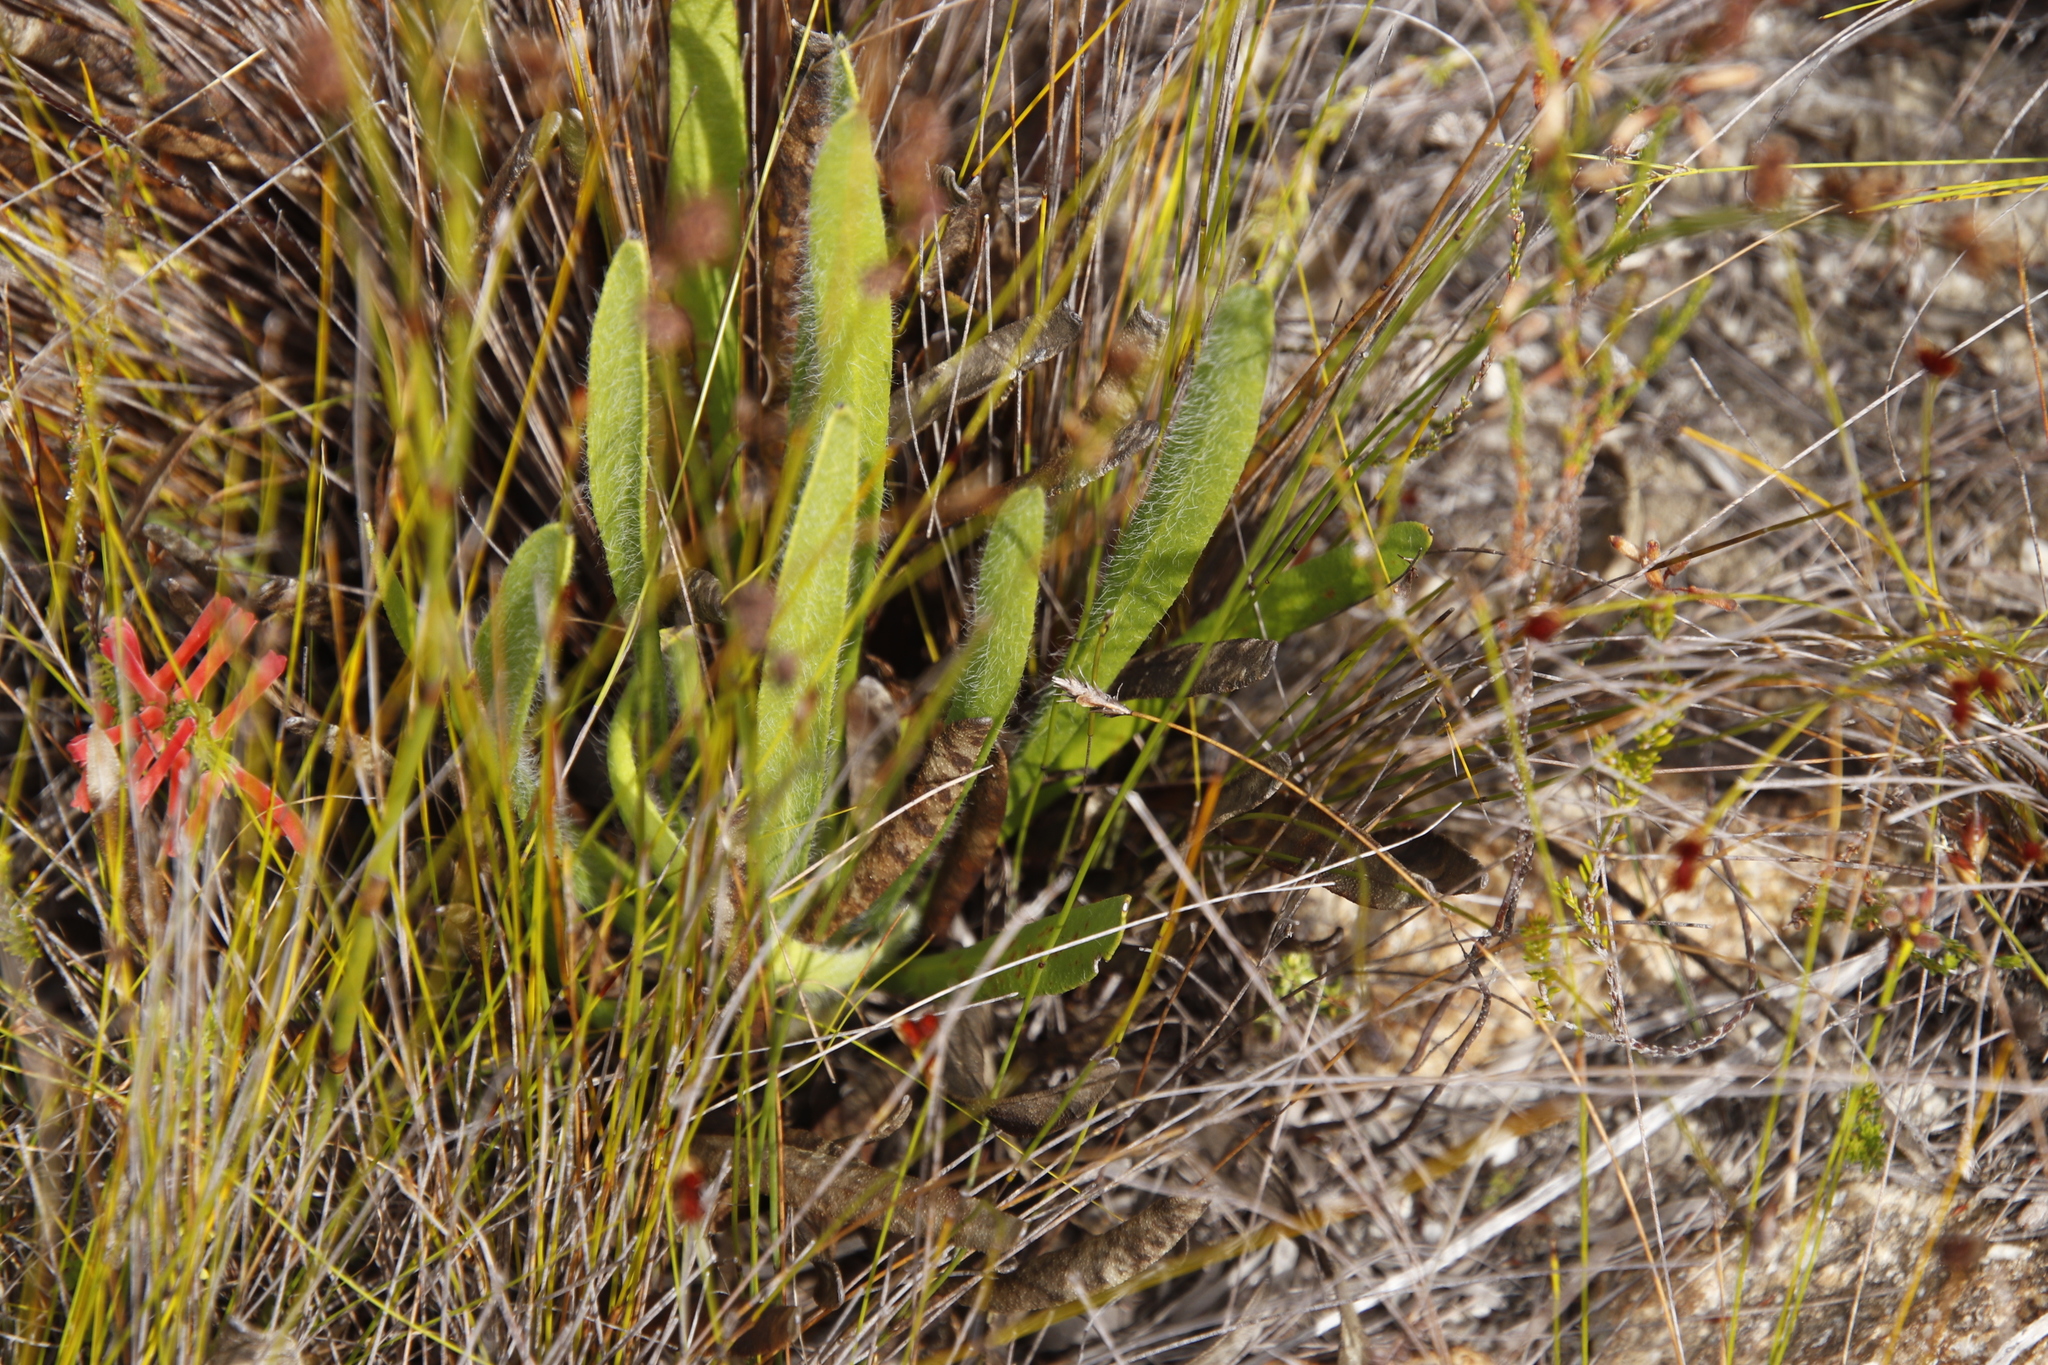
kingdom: Plantae
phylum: Tracheophyta
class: Magnoliopsida
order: Proteales
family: Proteaceae
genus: Protea
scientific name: Protea scabra
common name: Sandpaper-leaf sugarbush
